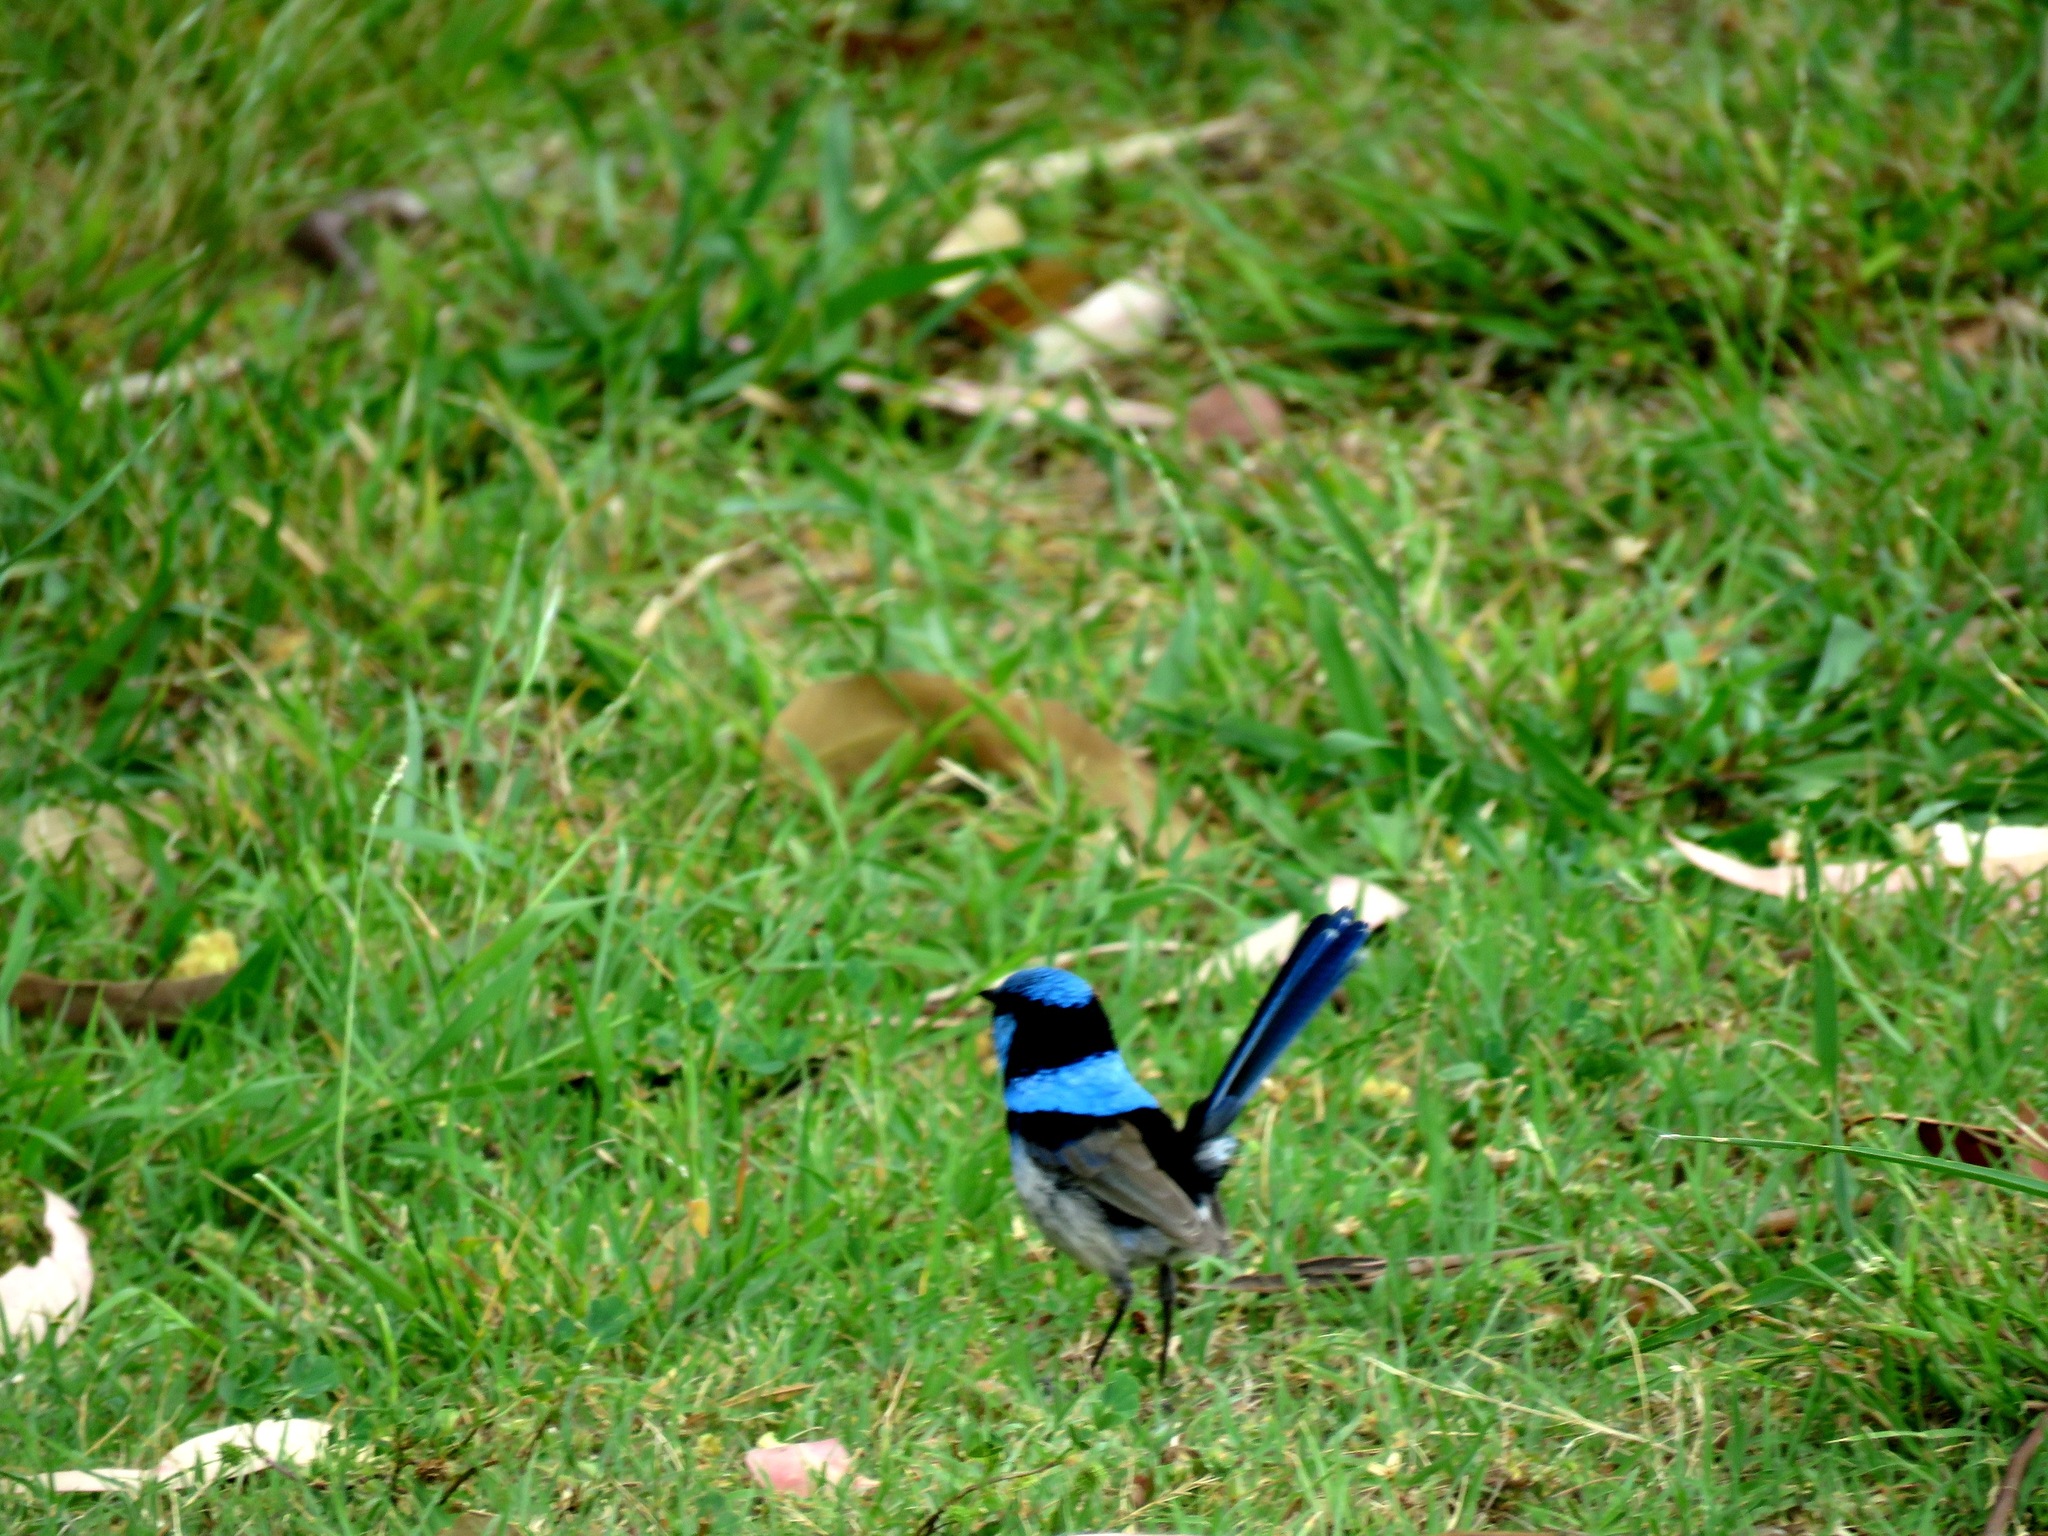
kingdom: Animalia
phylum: Chordata
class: Aves
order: Passeriformes
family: Maluridae
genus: Malurus
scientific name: Malurus cyaneus
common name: Superb fairywren
